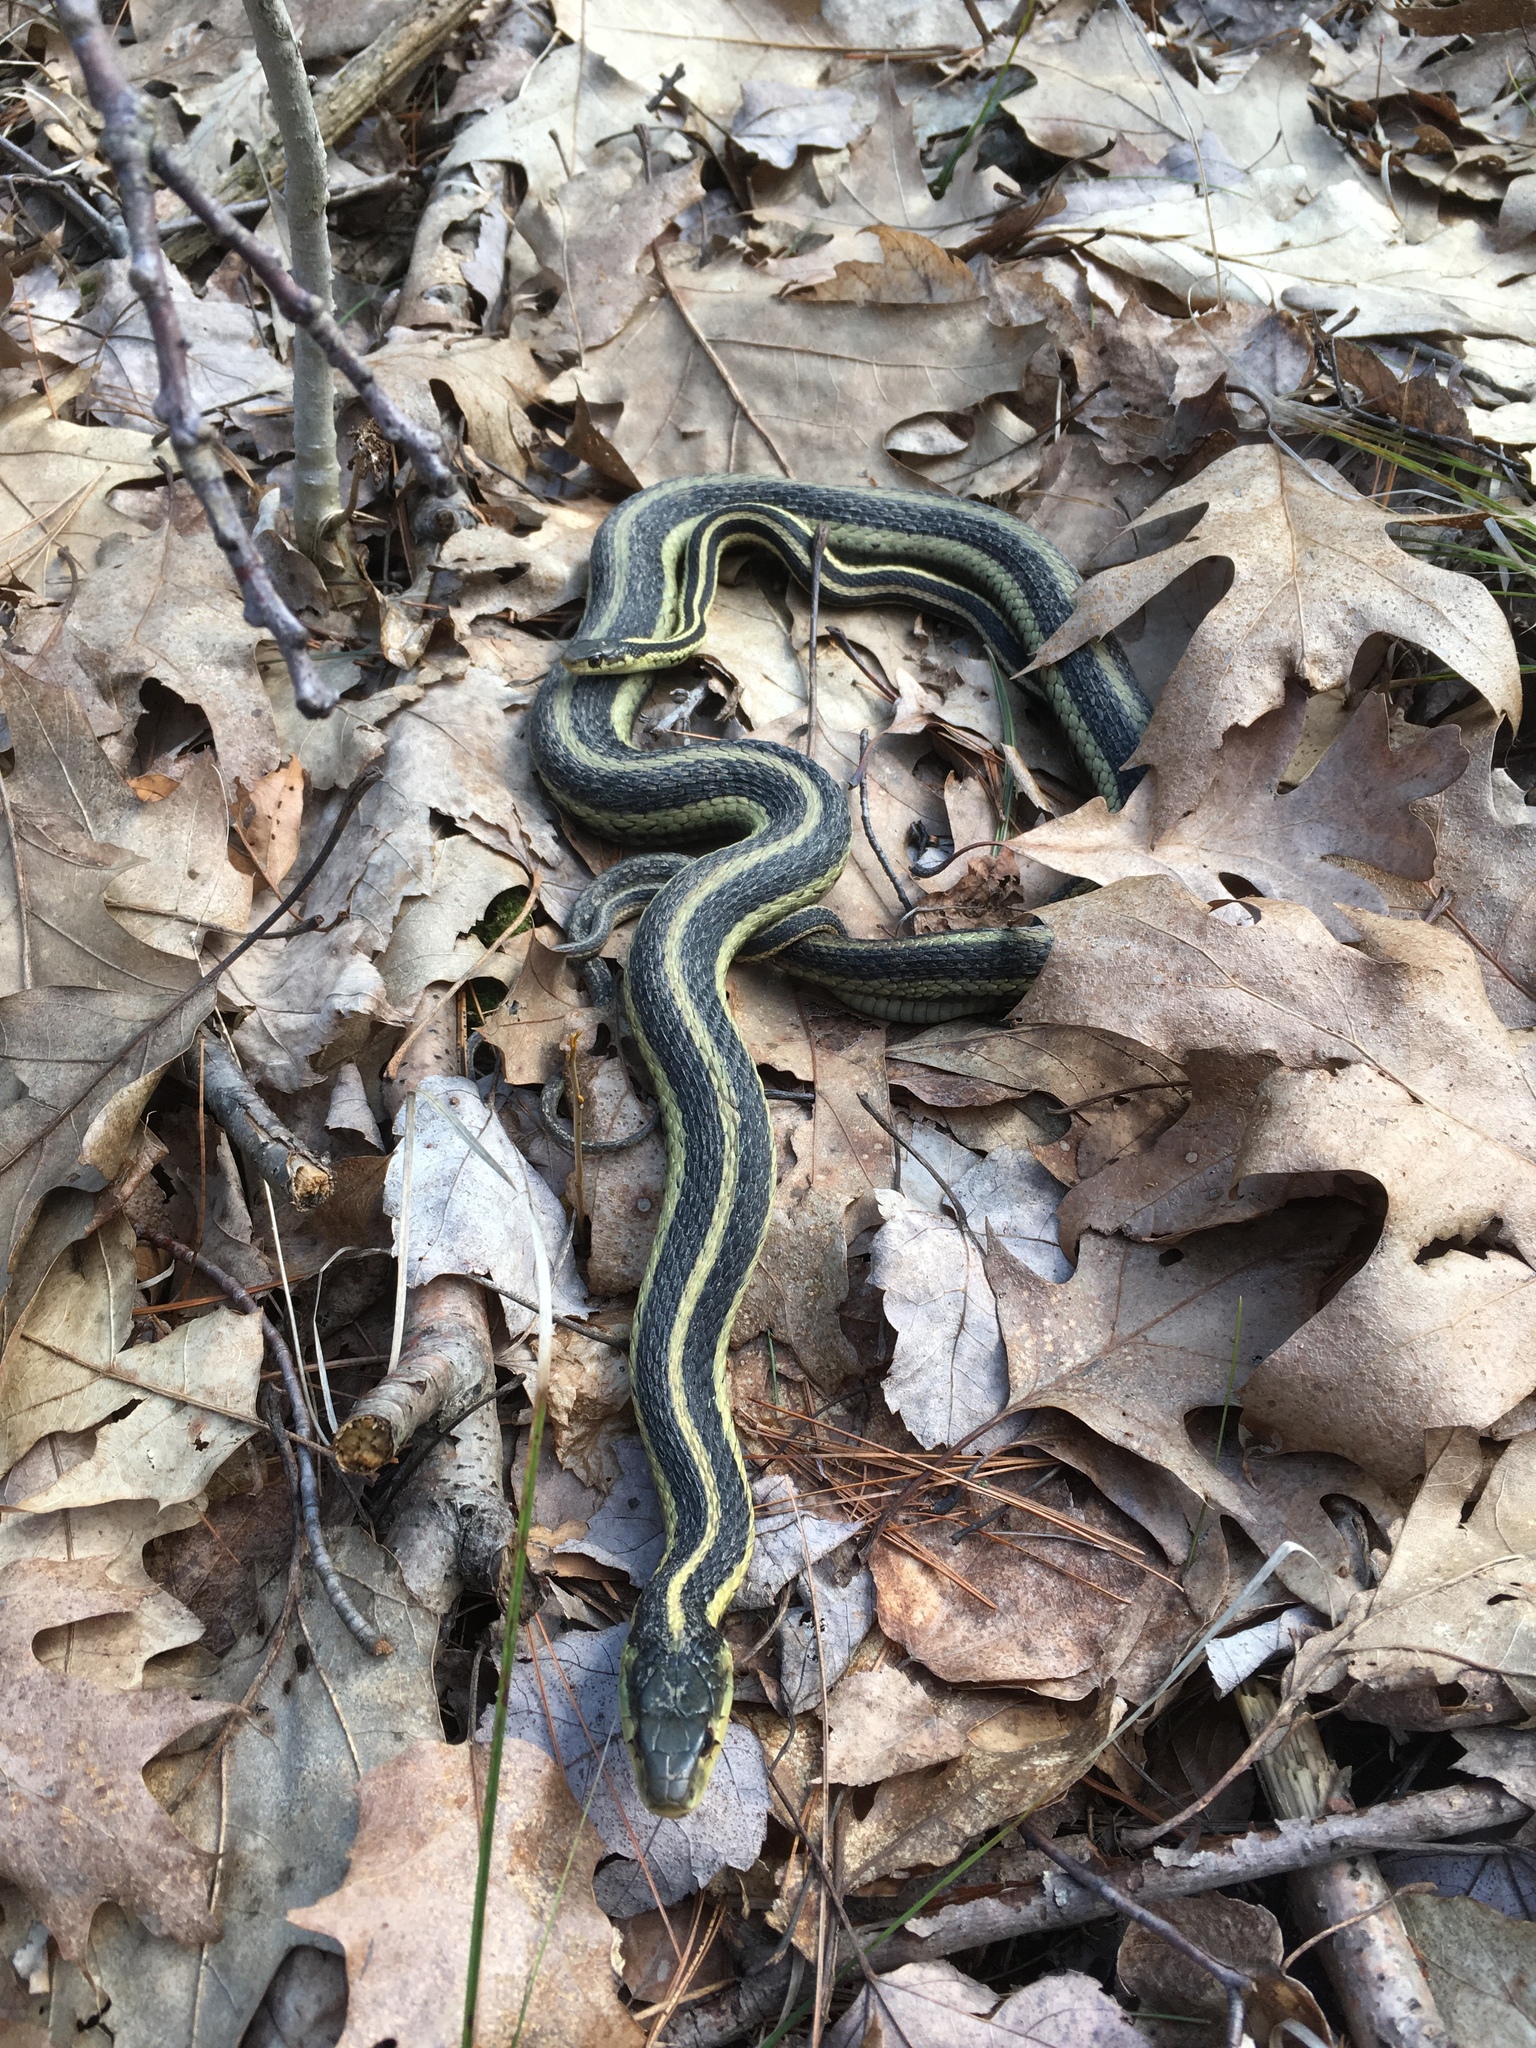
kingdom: Animalia
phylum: Chordata
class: Squamata
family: Colubridae
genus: Thamnophis
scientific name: Thamnophis sirtalis
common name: Common garter snake
